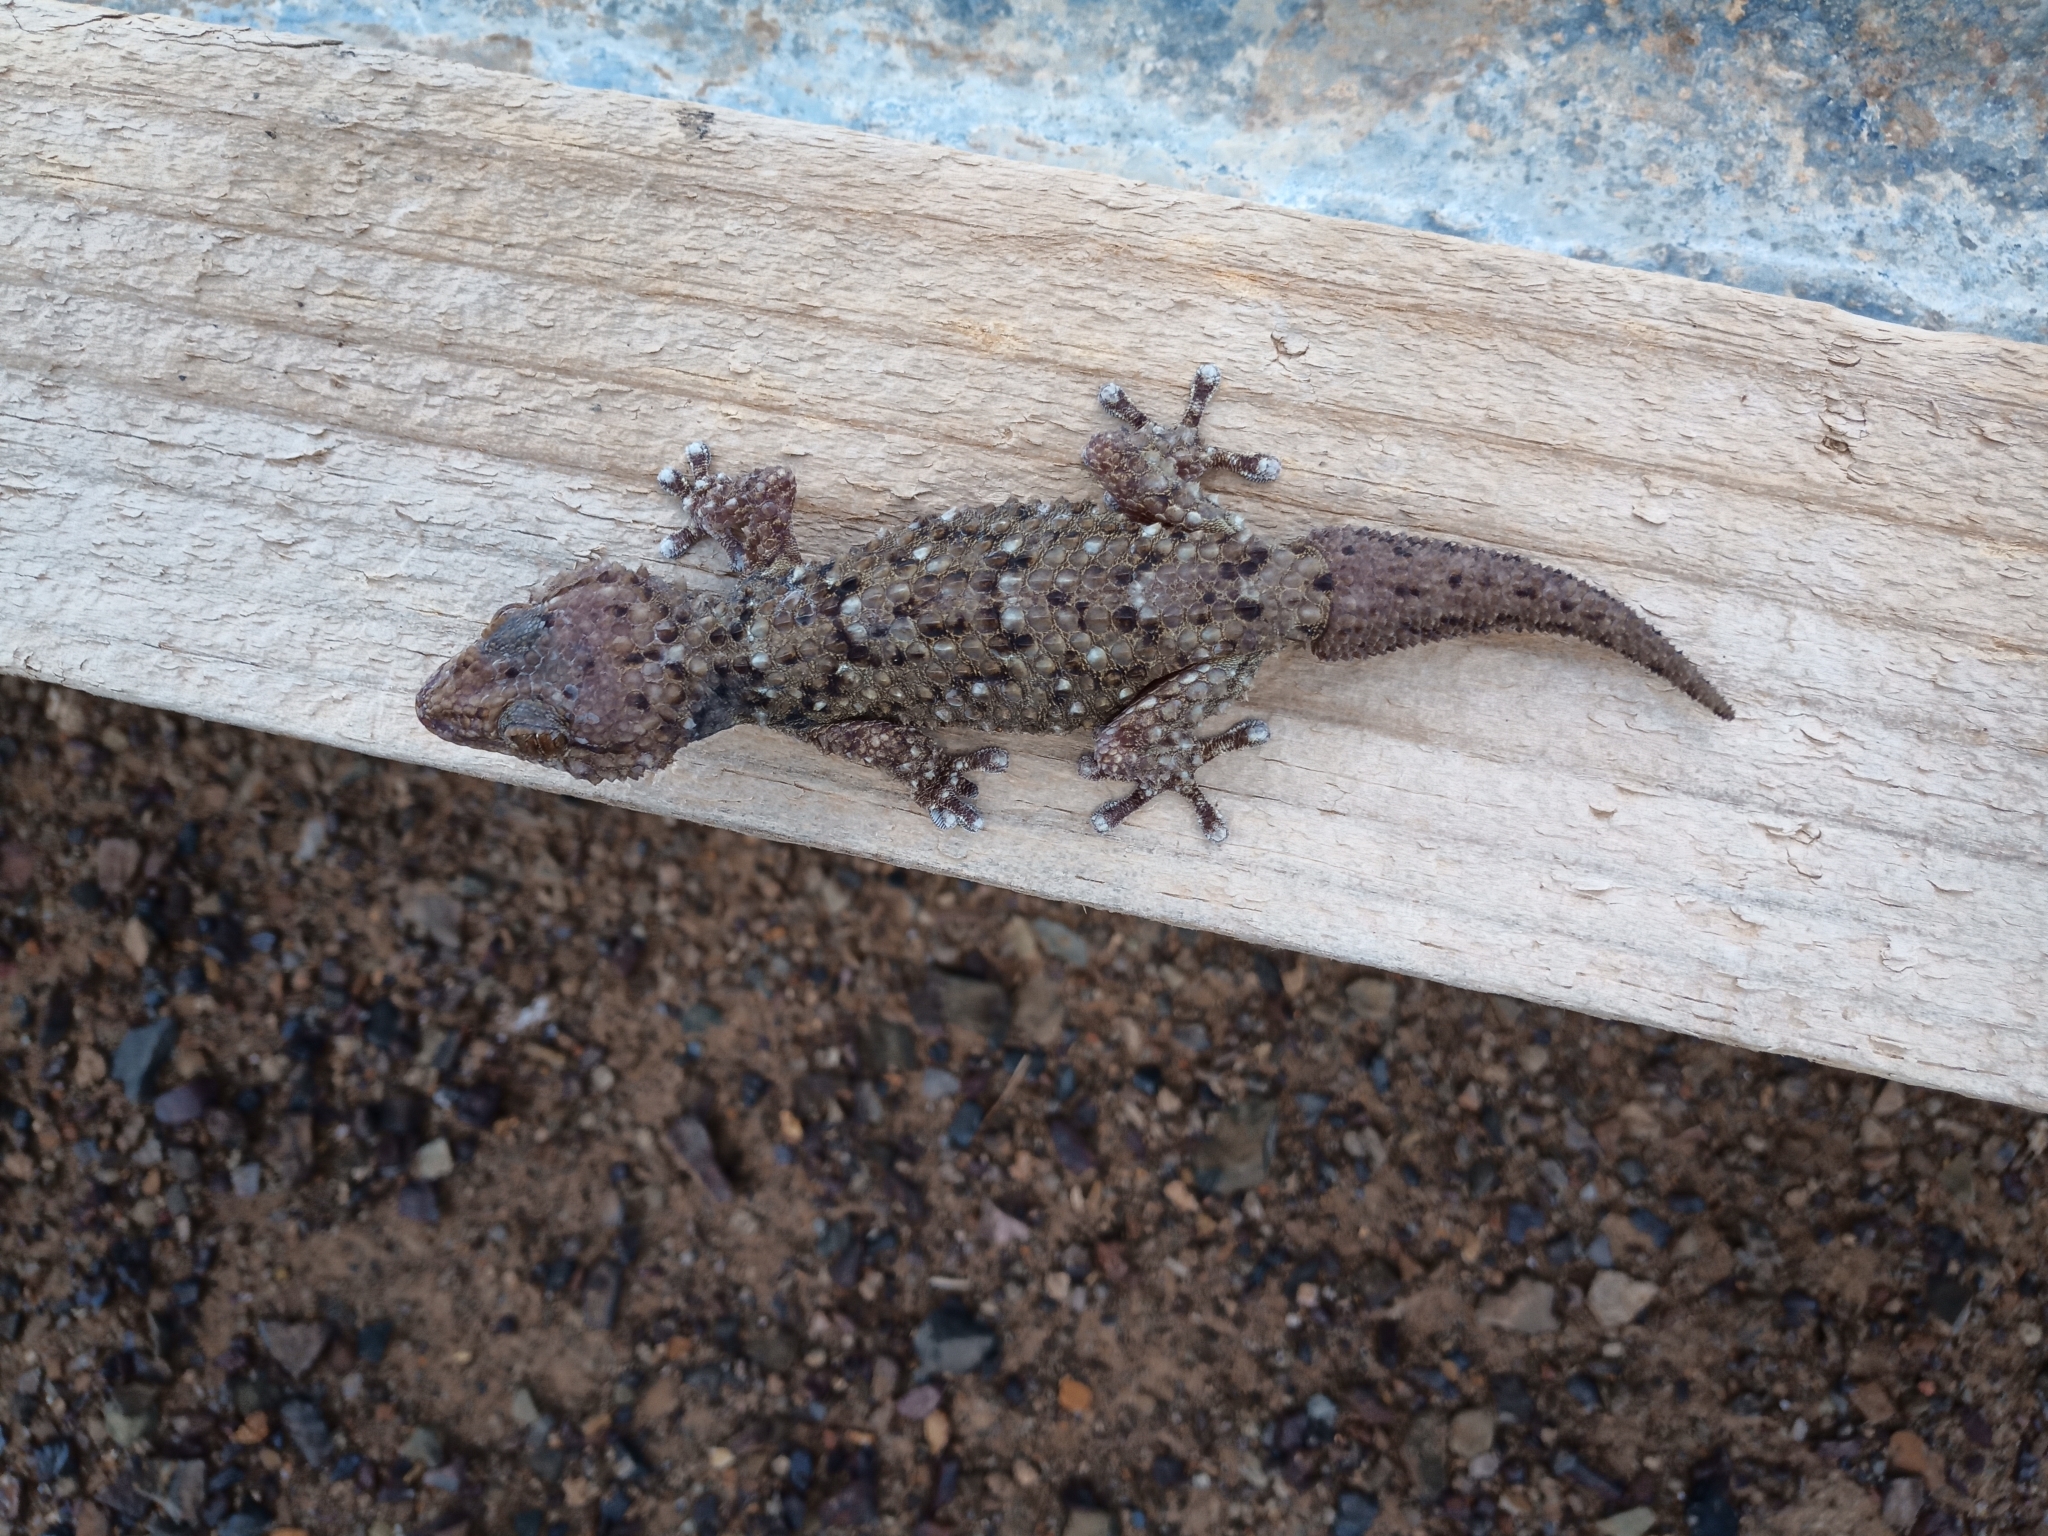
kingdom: Animalia
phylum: Chordata
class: Squamata
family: Gekkonidae
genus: Chondrodactylus
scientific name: Chondrodactylus bibronii
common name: Bibron's gecko
